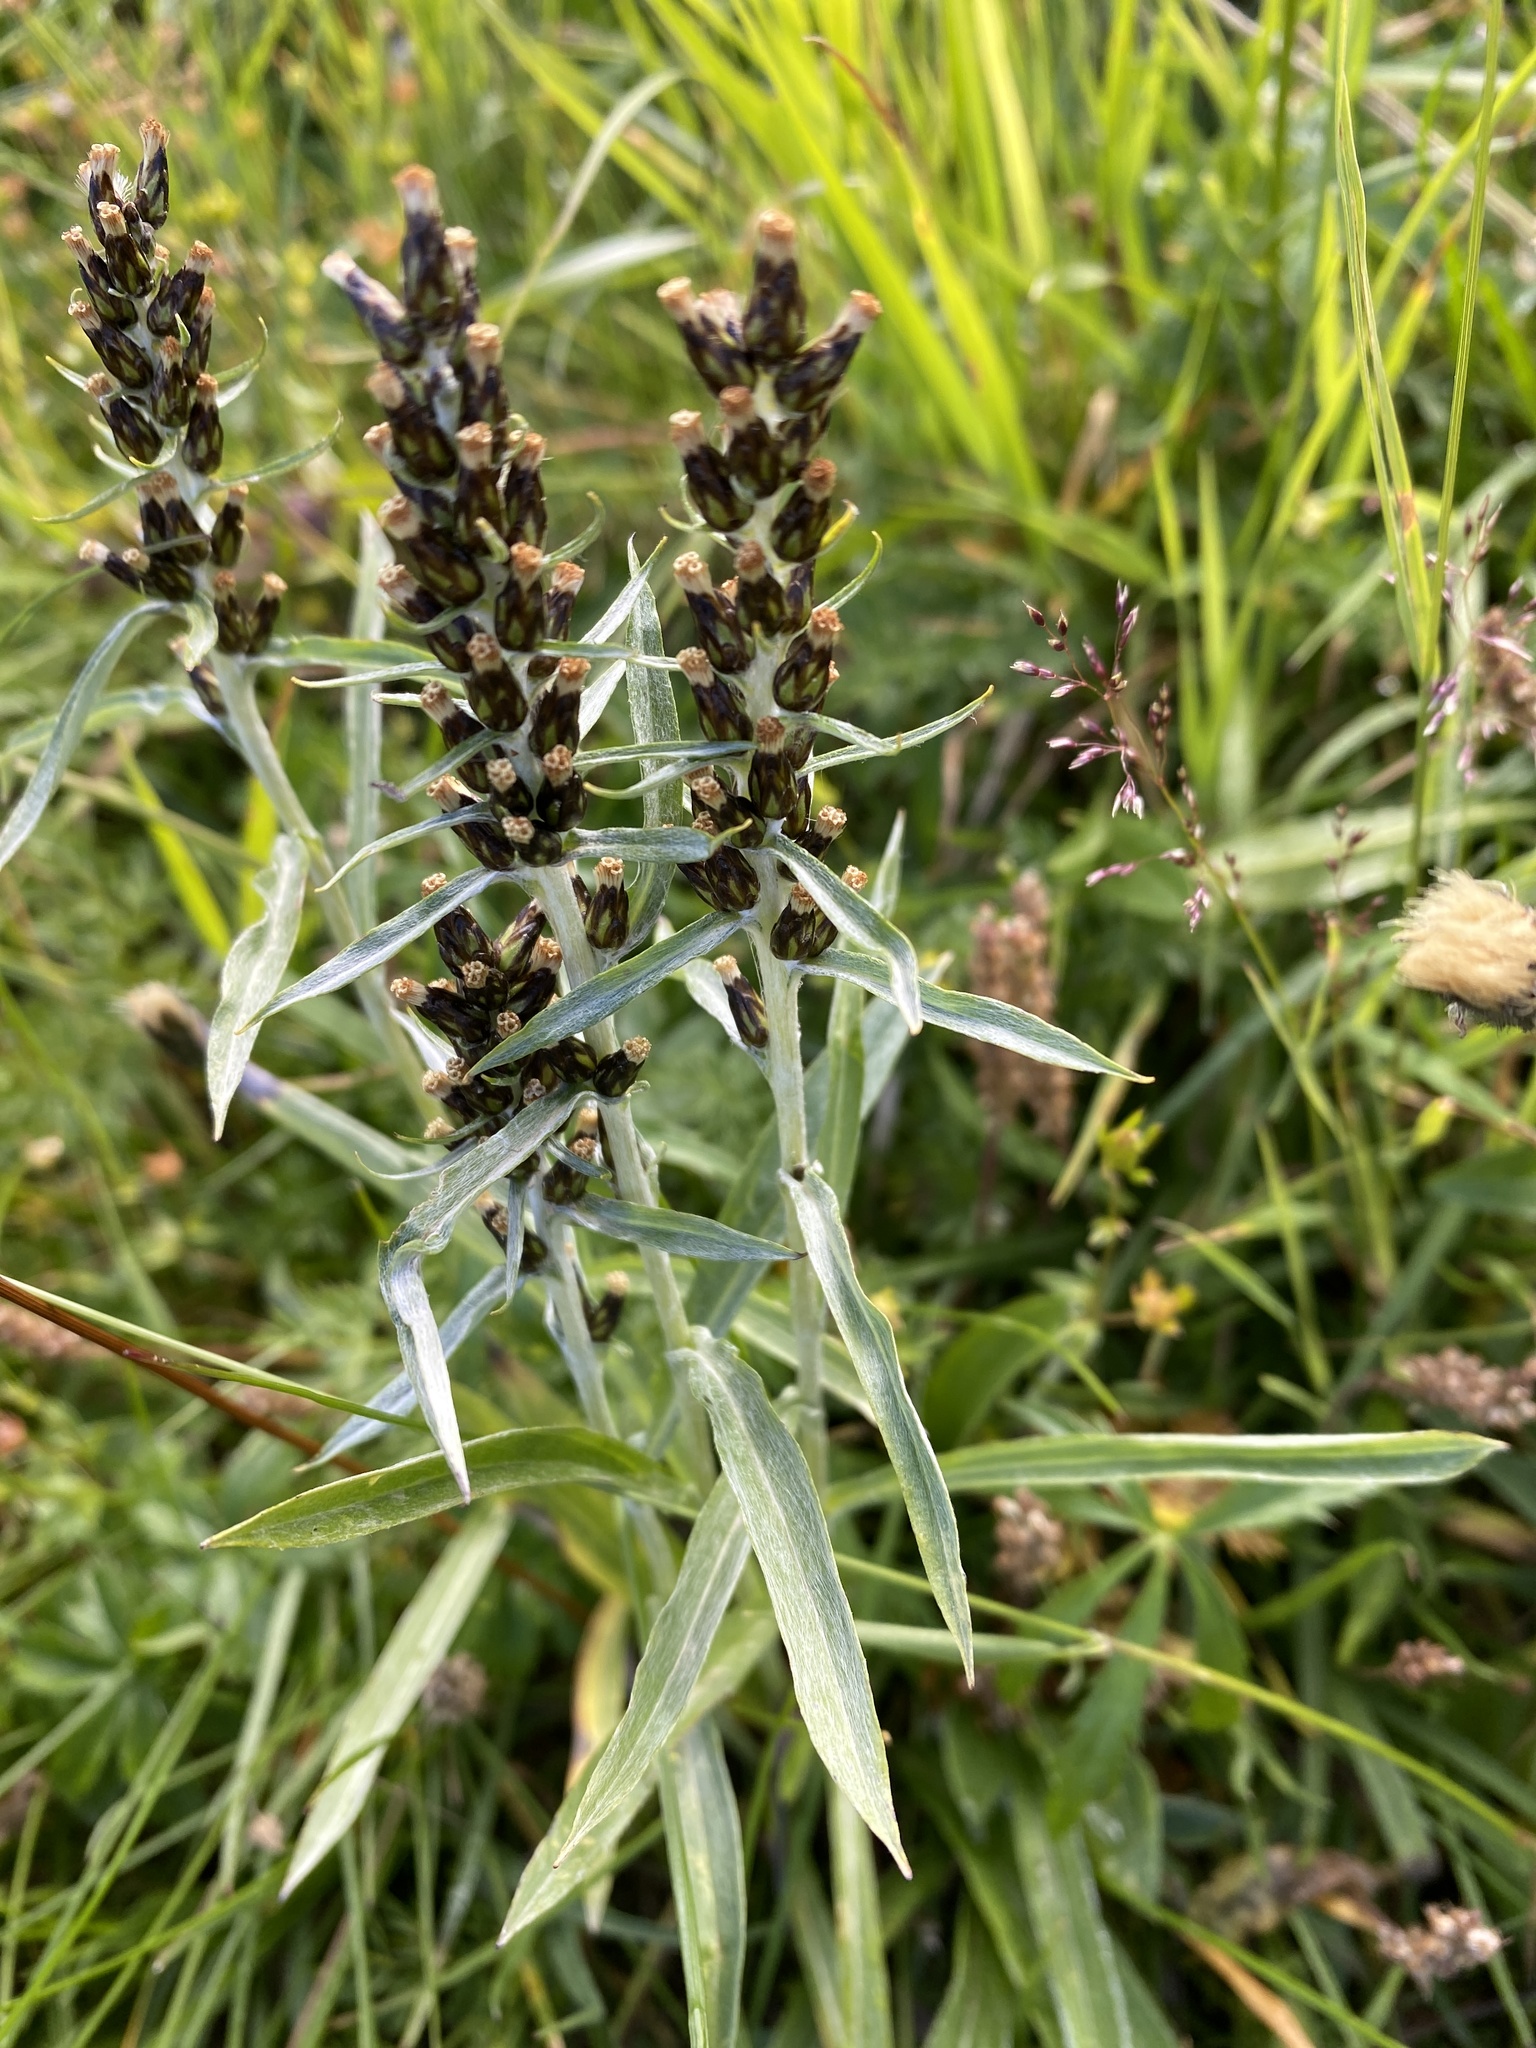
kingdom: Plantae
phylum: Tracheophyta
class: Magnoliopsida
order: Asterales
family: Asteraceae
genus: Omalotheca
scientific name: Omalotheca norvegica
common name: Norwegian arctic-cudweed
